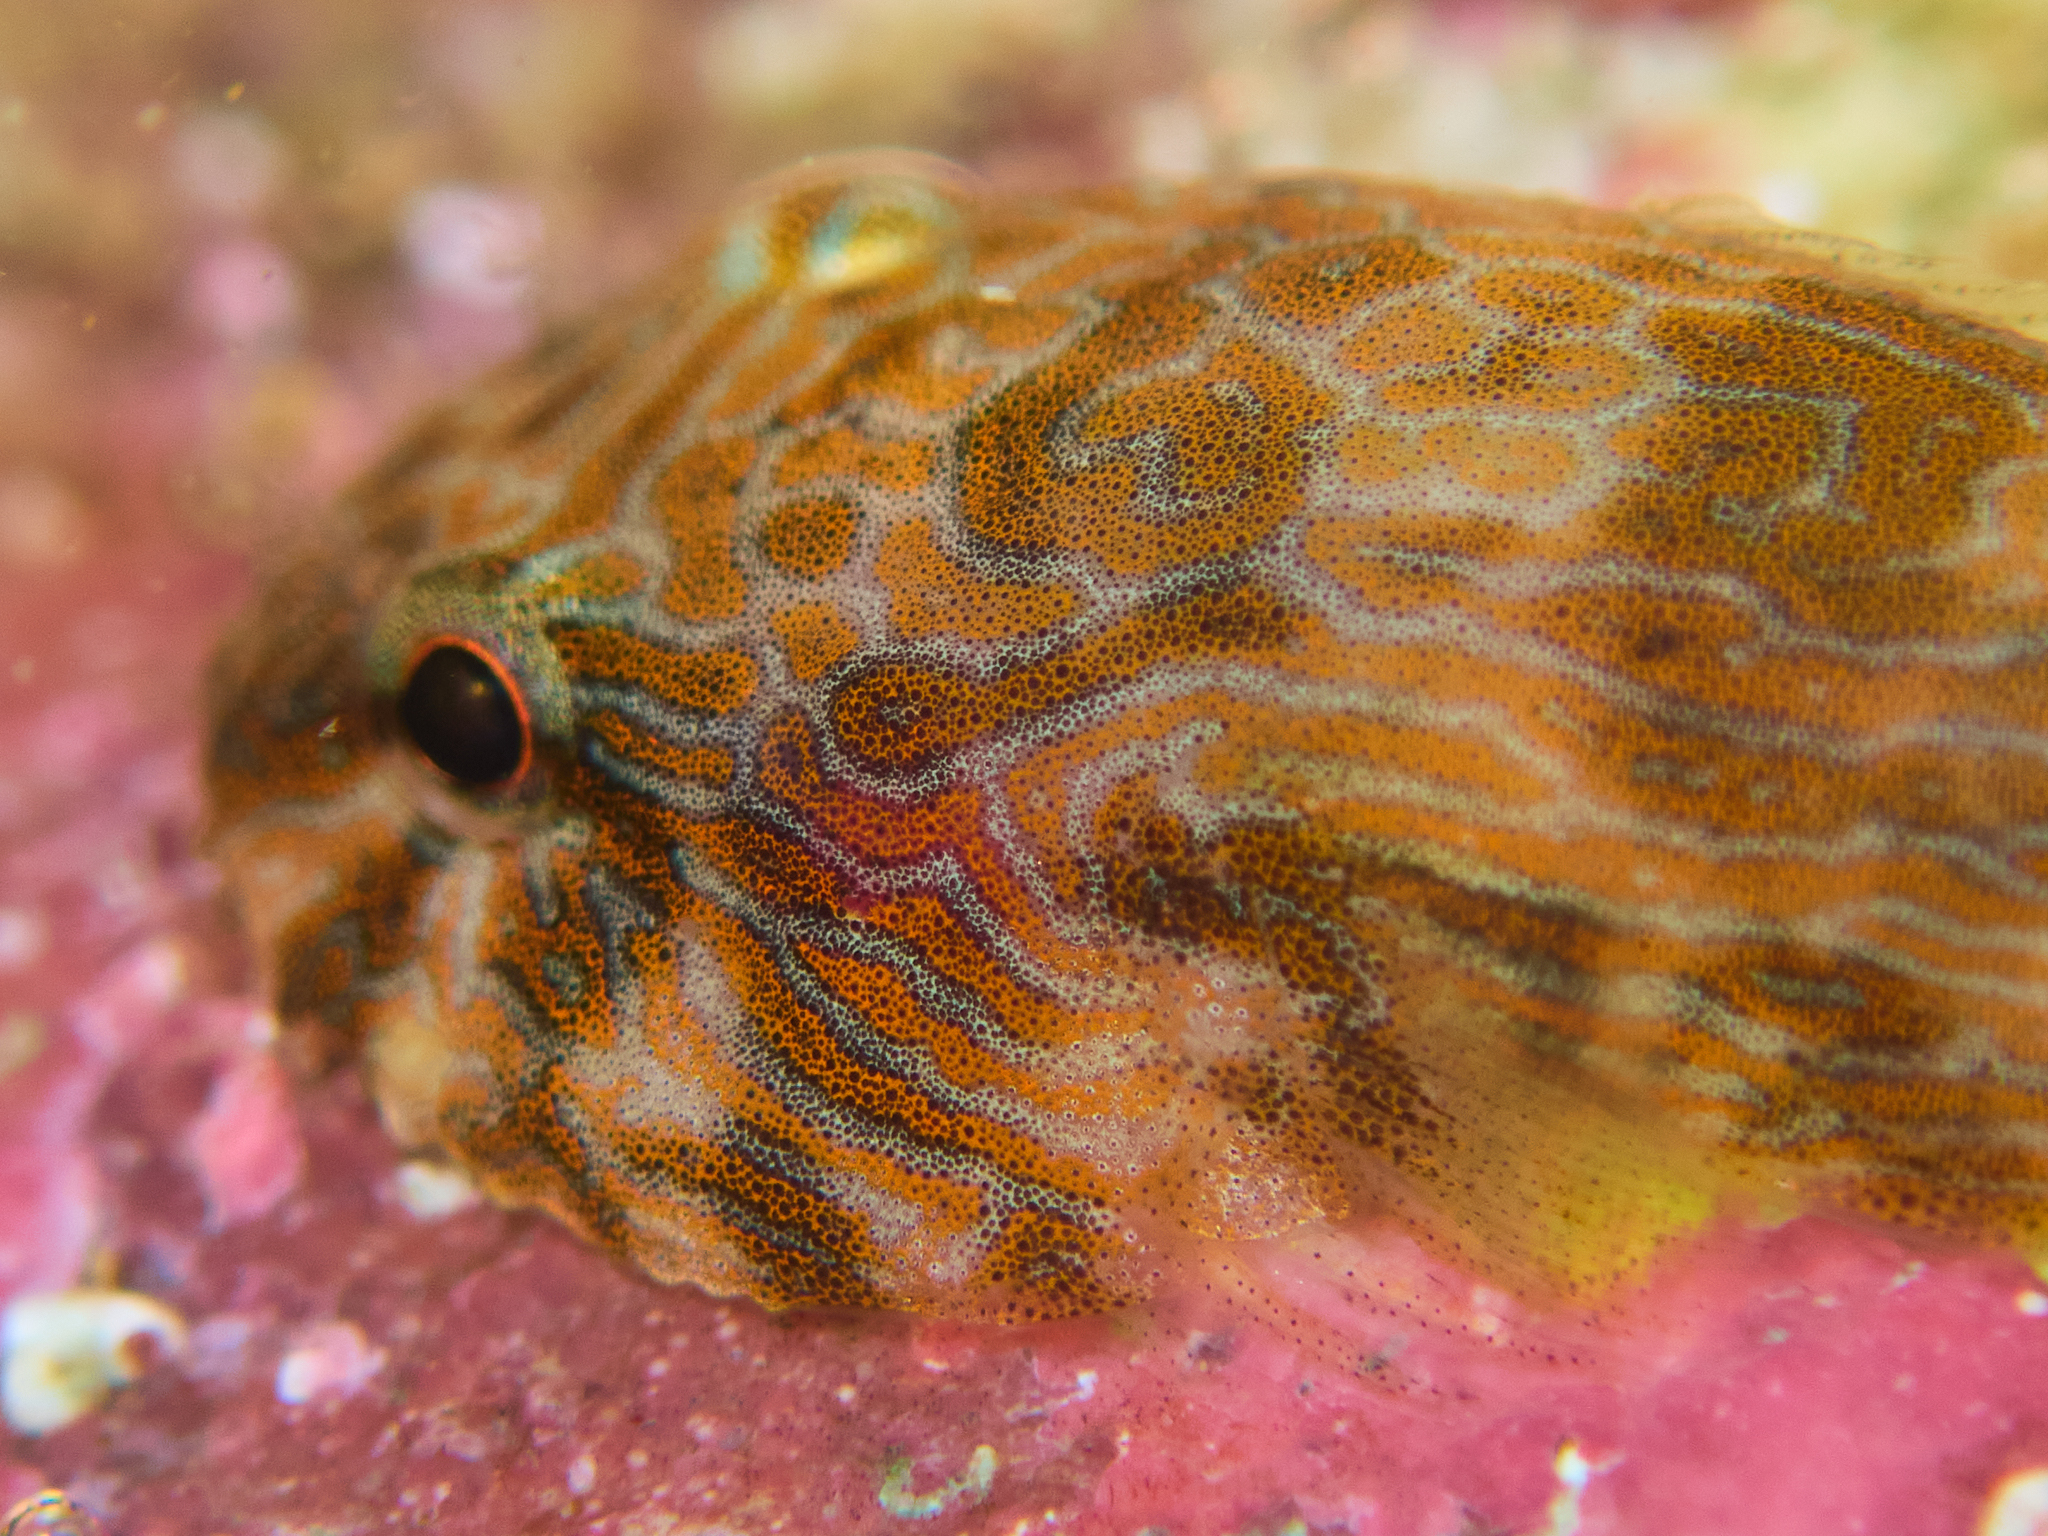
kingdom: Animalia
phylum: Chordata
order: Gobiesociformes
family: Gobiesocidae
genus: Gobiesox
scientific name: Gobiesox adustus
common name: Panamic clingfish
